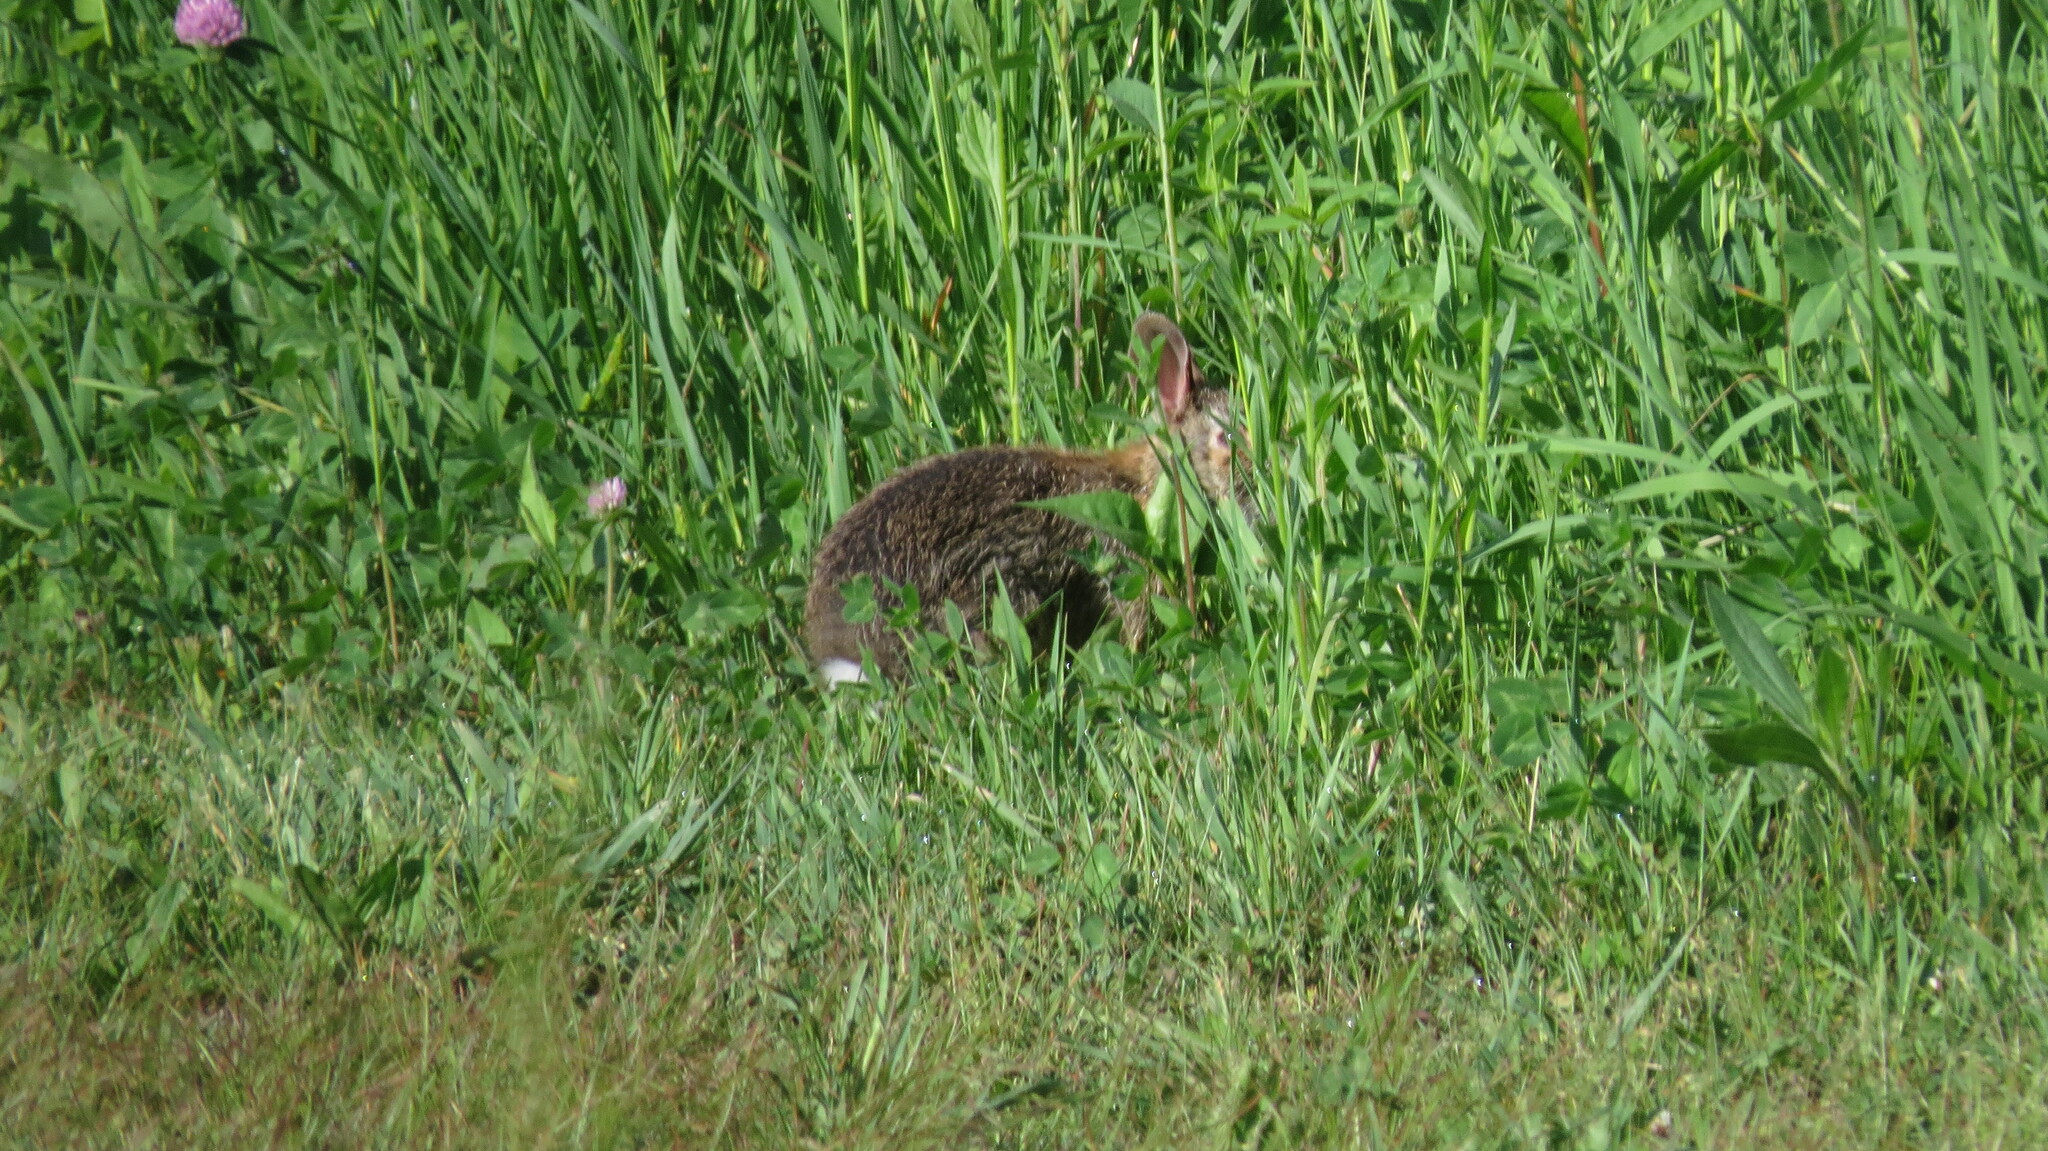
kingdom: Animalia
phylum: Chordata
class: Mammalia
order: Lagomorpha
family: Leporidae
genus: Sylvilagus
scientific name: Sylvilagus floridanus
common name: Eastern cottontail
